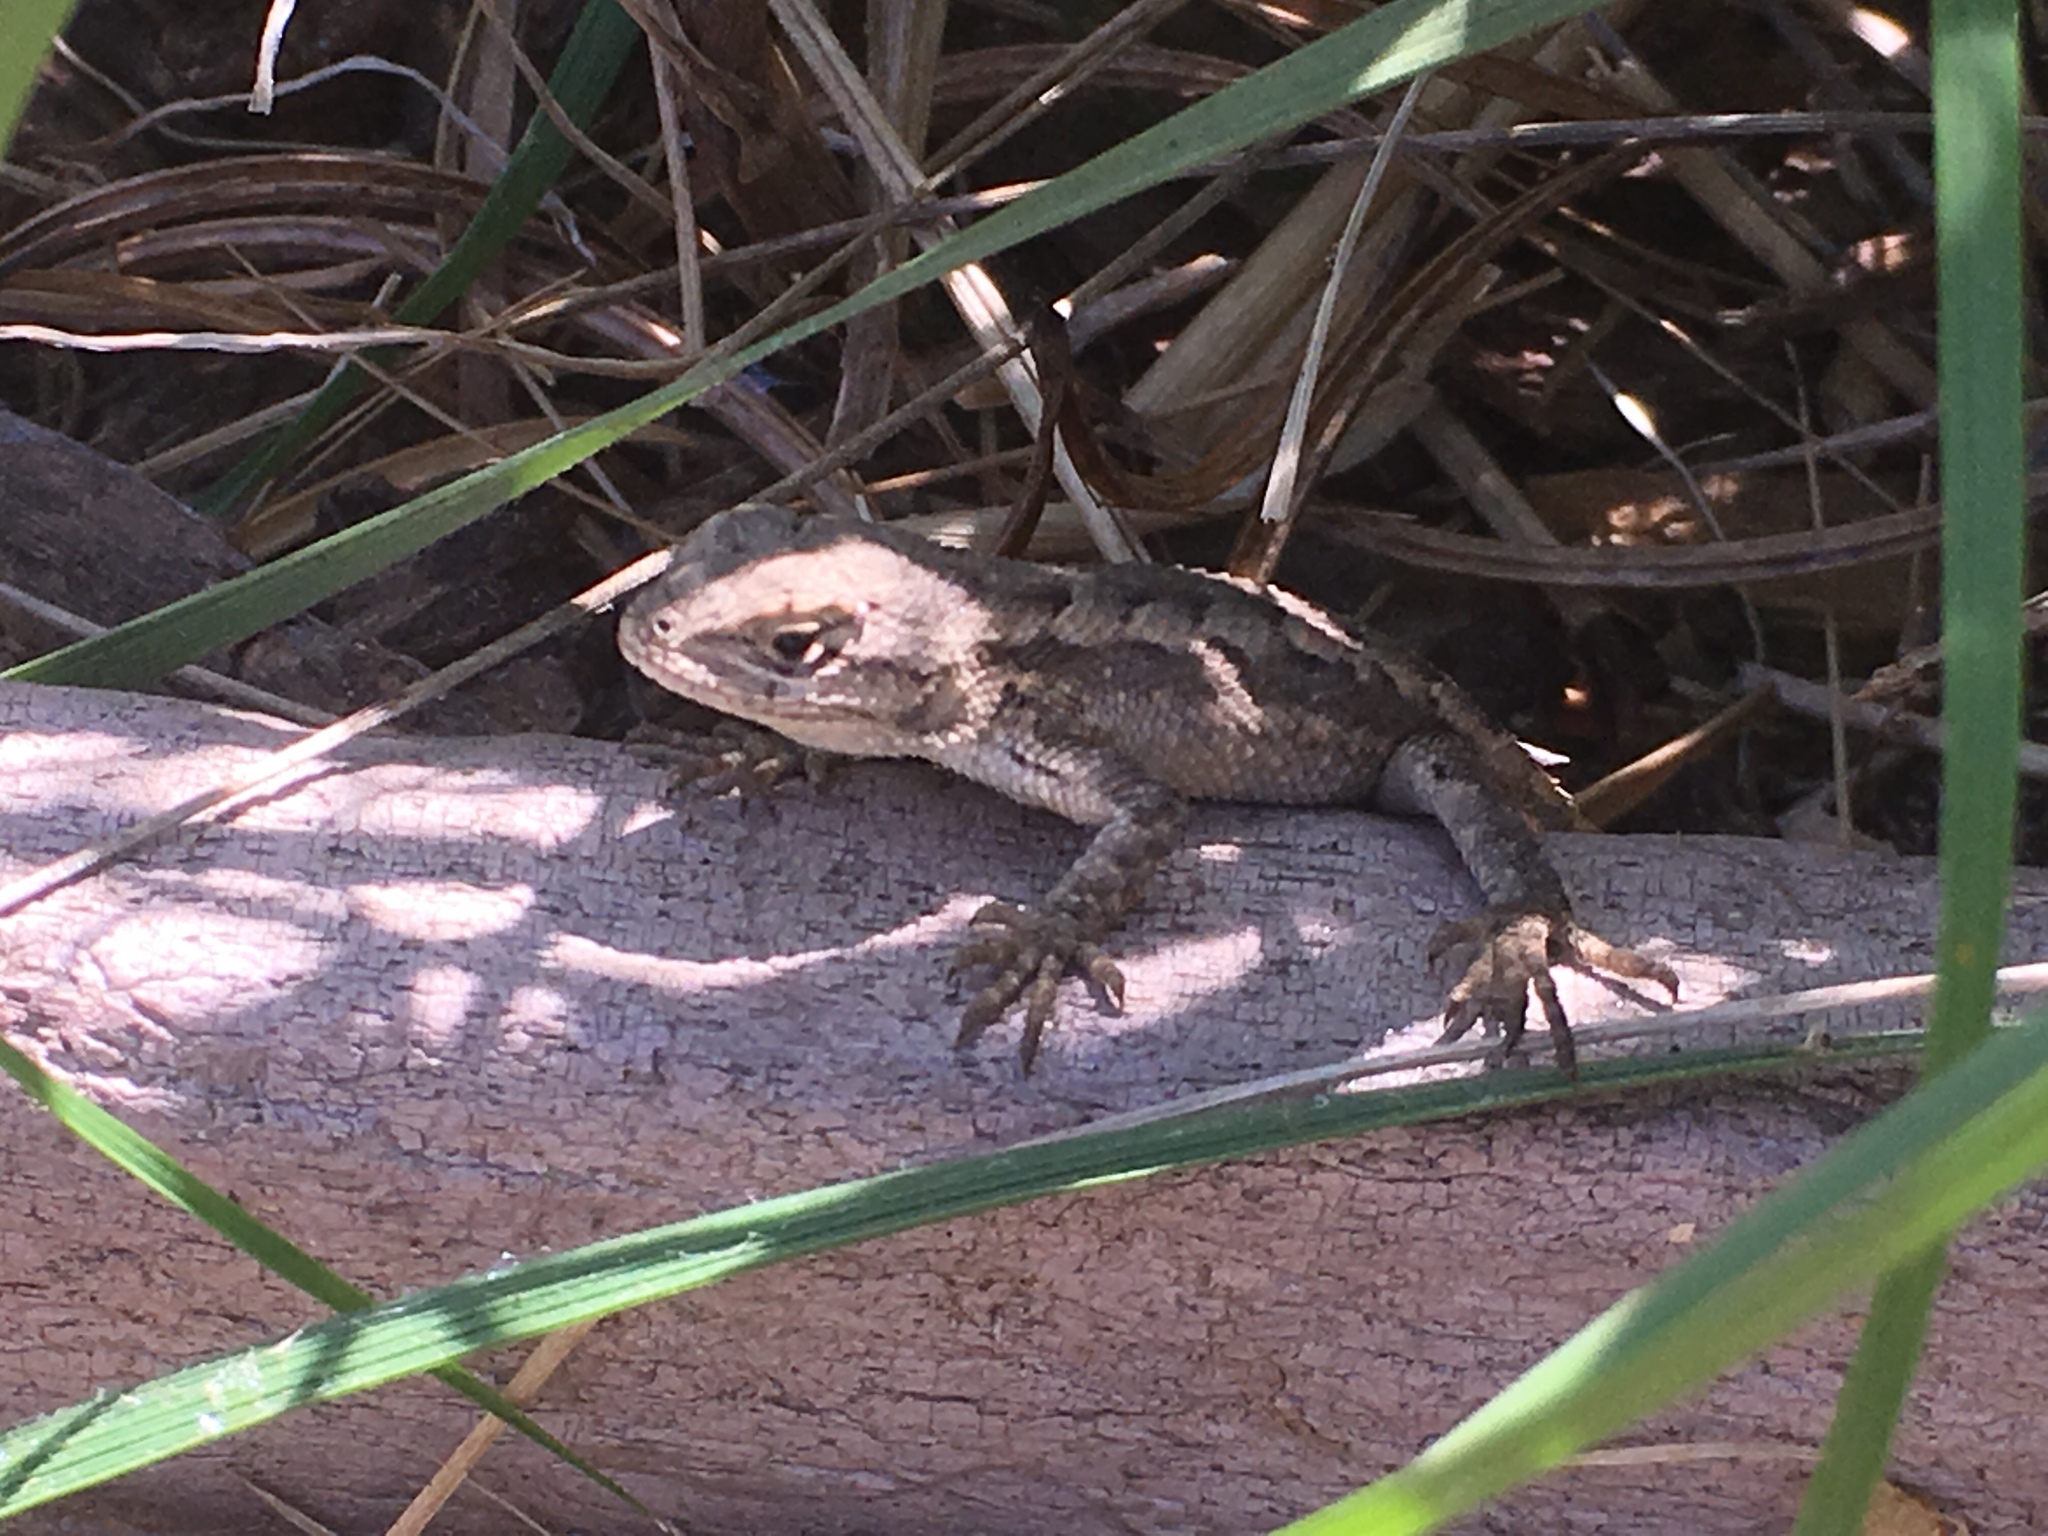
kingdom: Animalia
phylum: Chordata
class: Squamata
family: Phrynosomatidae
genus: Sceloporus
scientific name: Sceloporus occidentalis
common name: Western fence lizard
